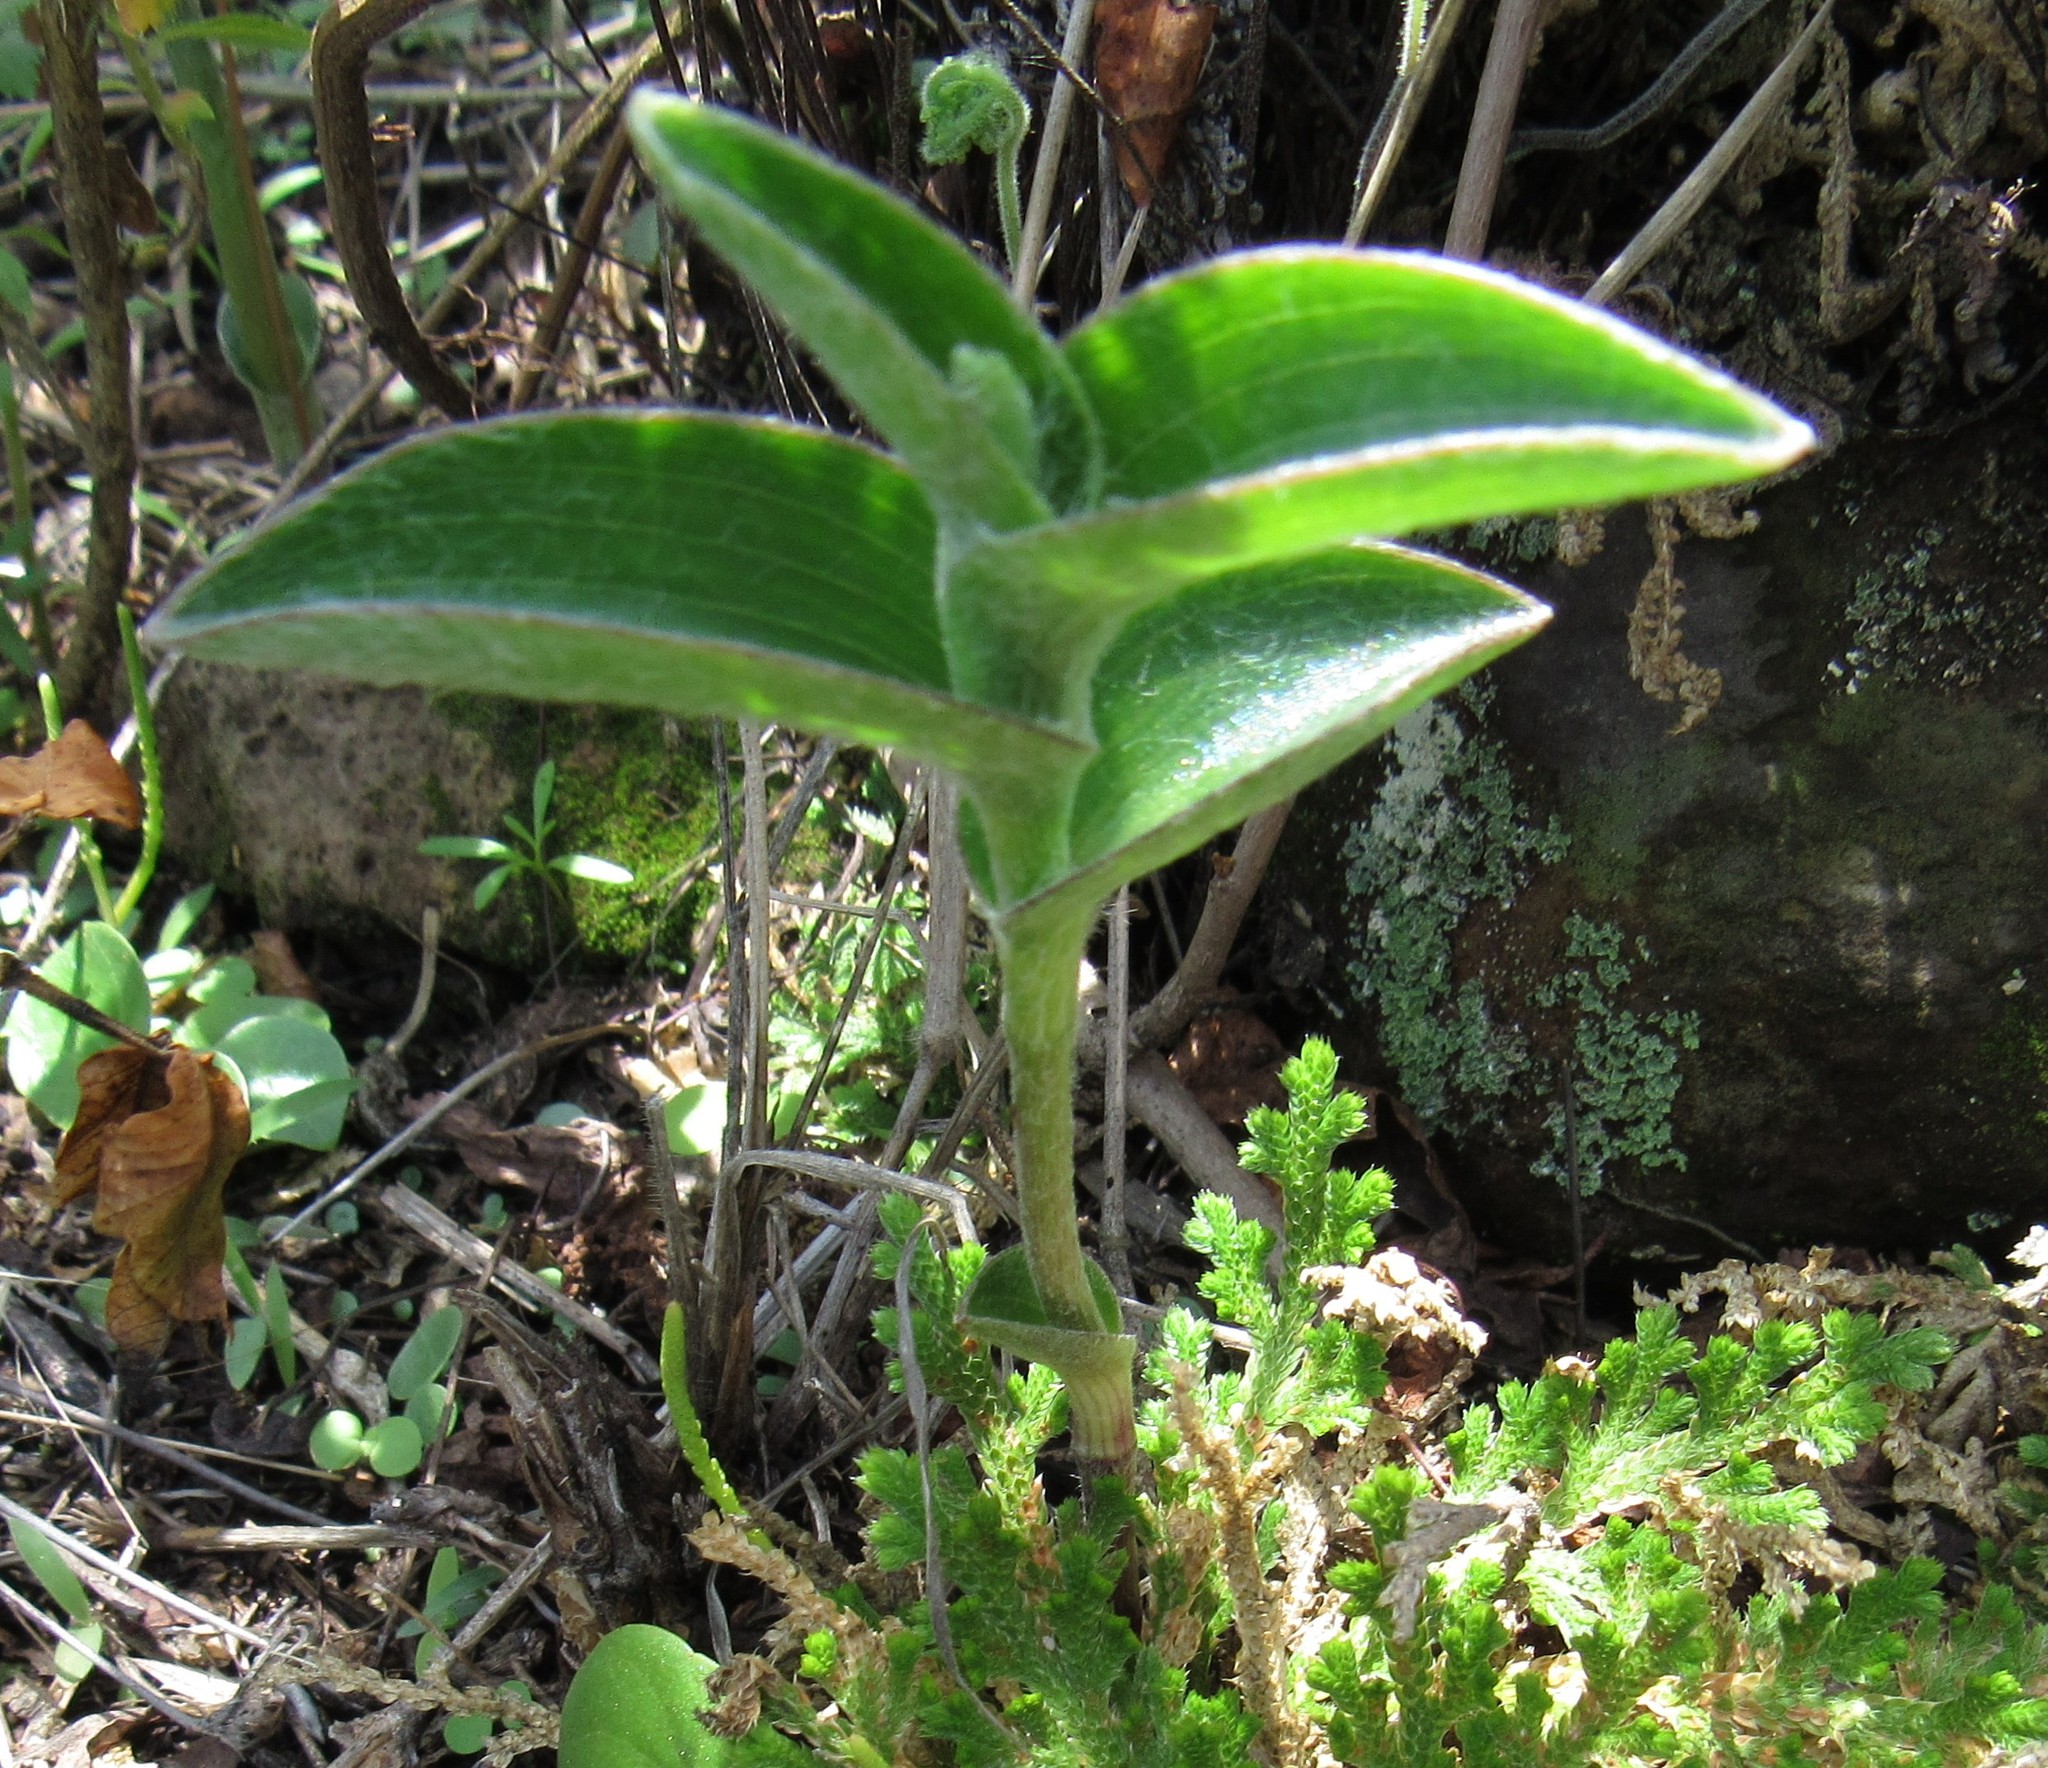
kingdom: Plantae
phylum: Tracheophyta
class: Liliopsida
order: Commelinales
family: Commelinaceae
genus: Tradescantia
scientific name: Tradescantia crassifolia
